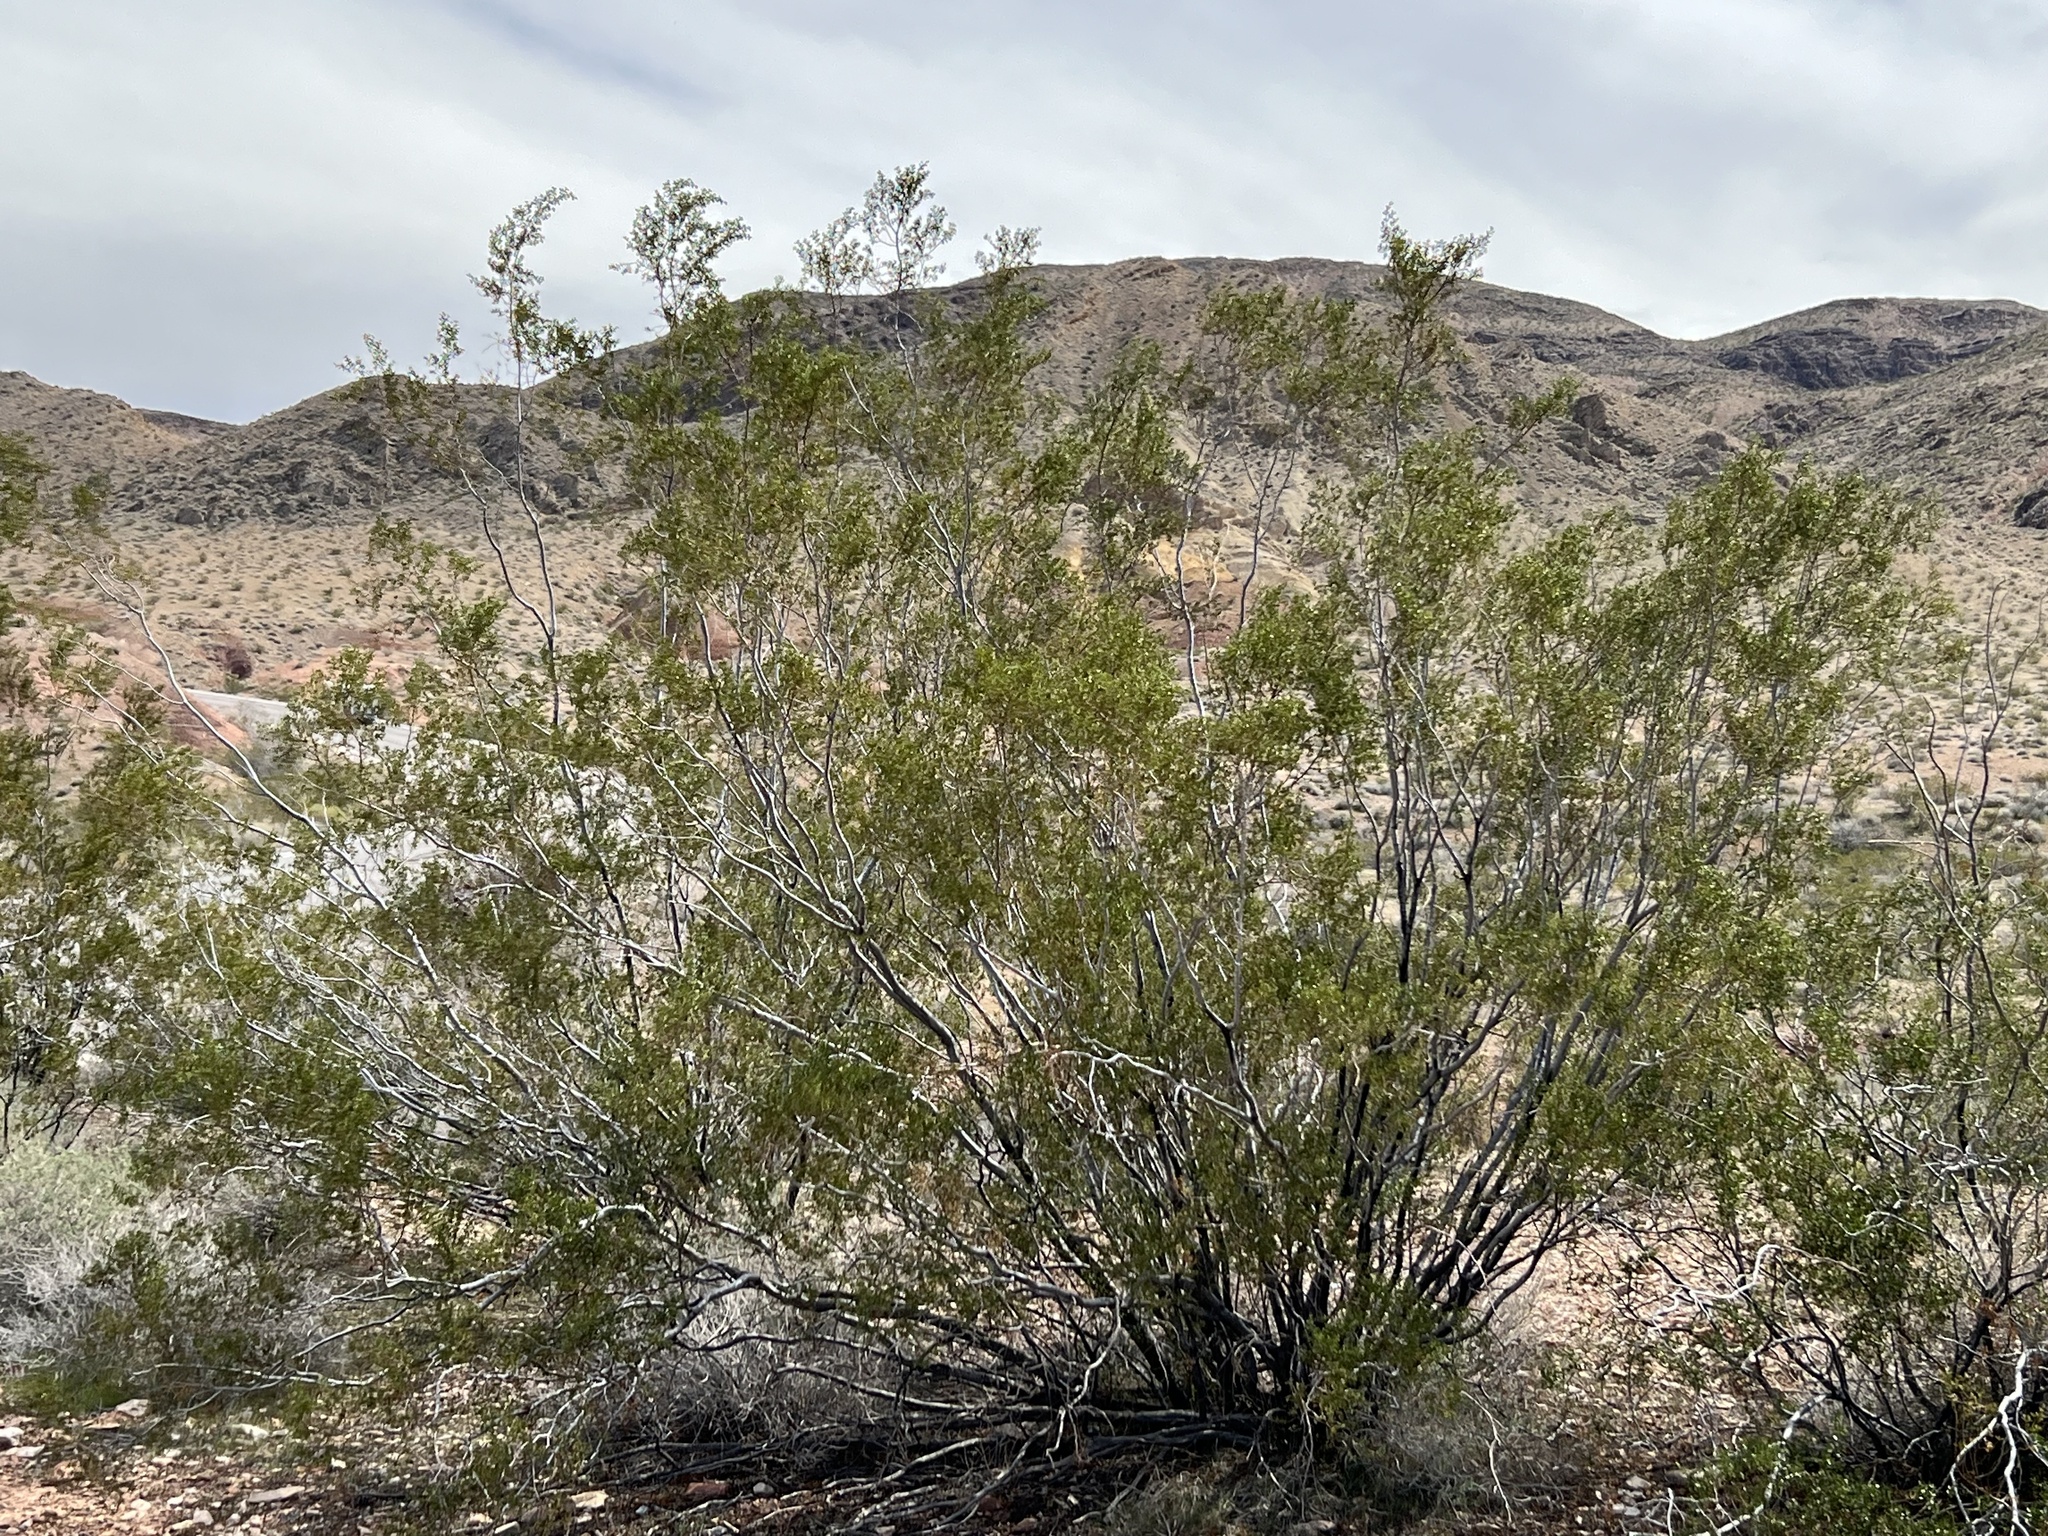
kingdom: Plantae
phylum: Tracheophyta
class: Magnoliopsida
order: Zygophyllales
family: Zygophyllaceae
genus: Larrea
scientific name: Larrea tridentata
